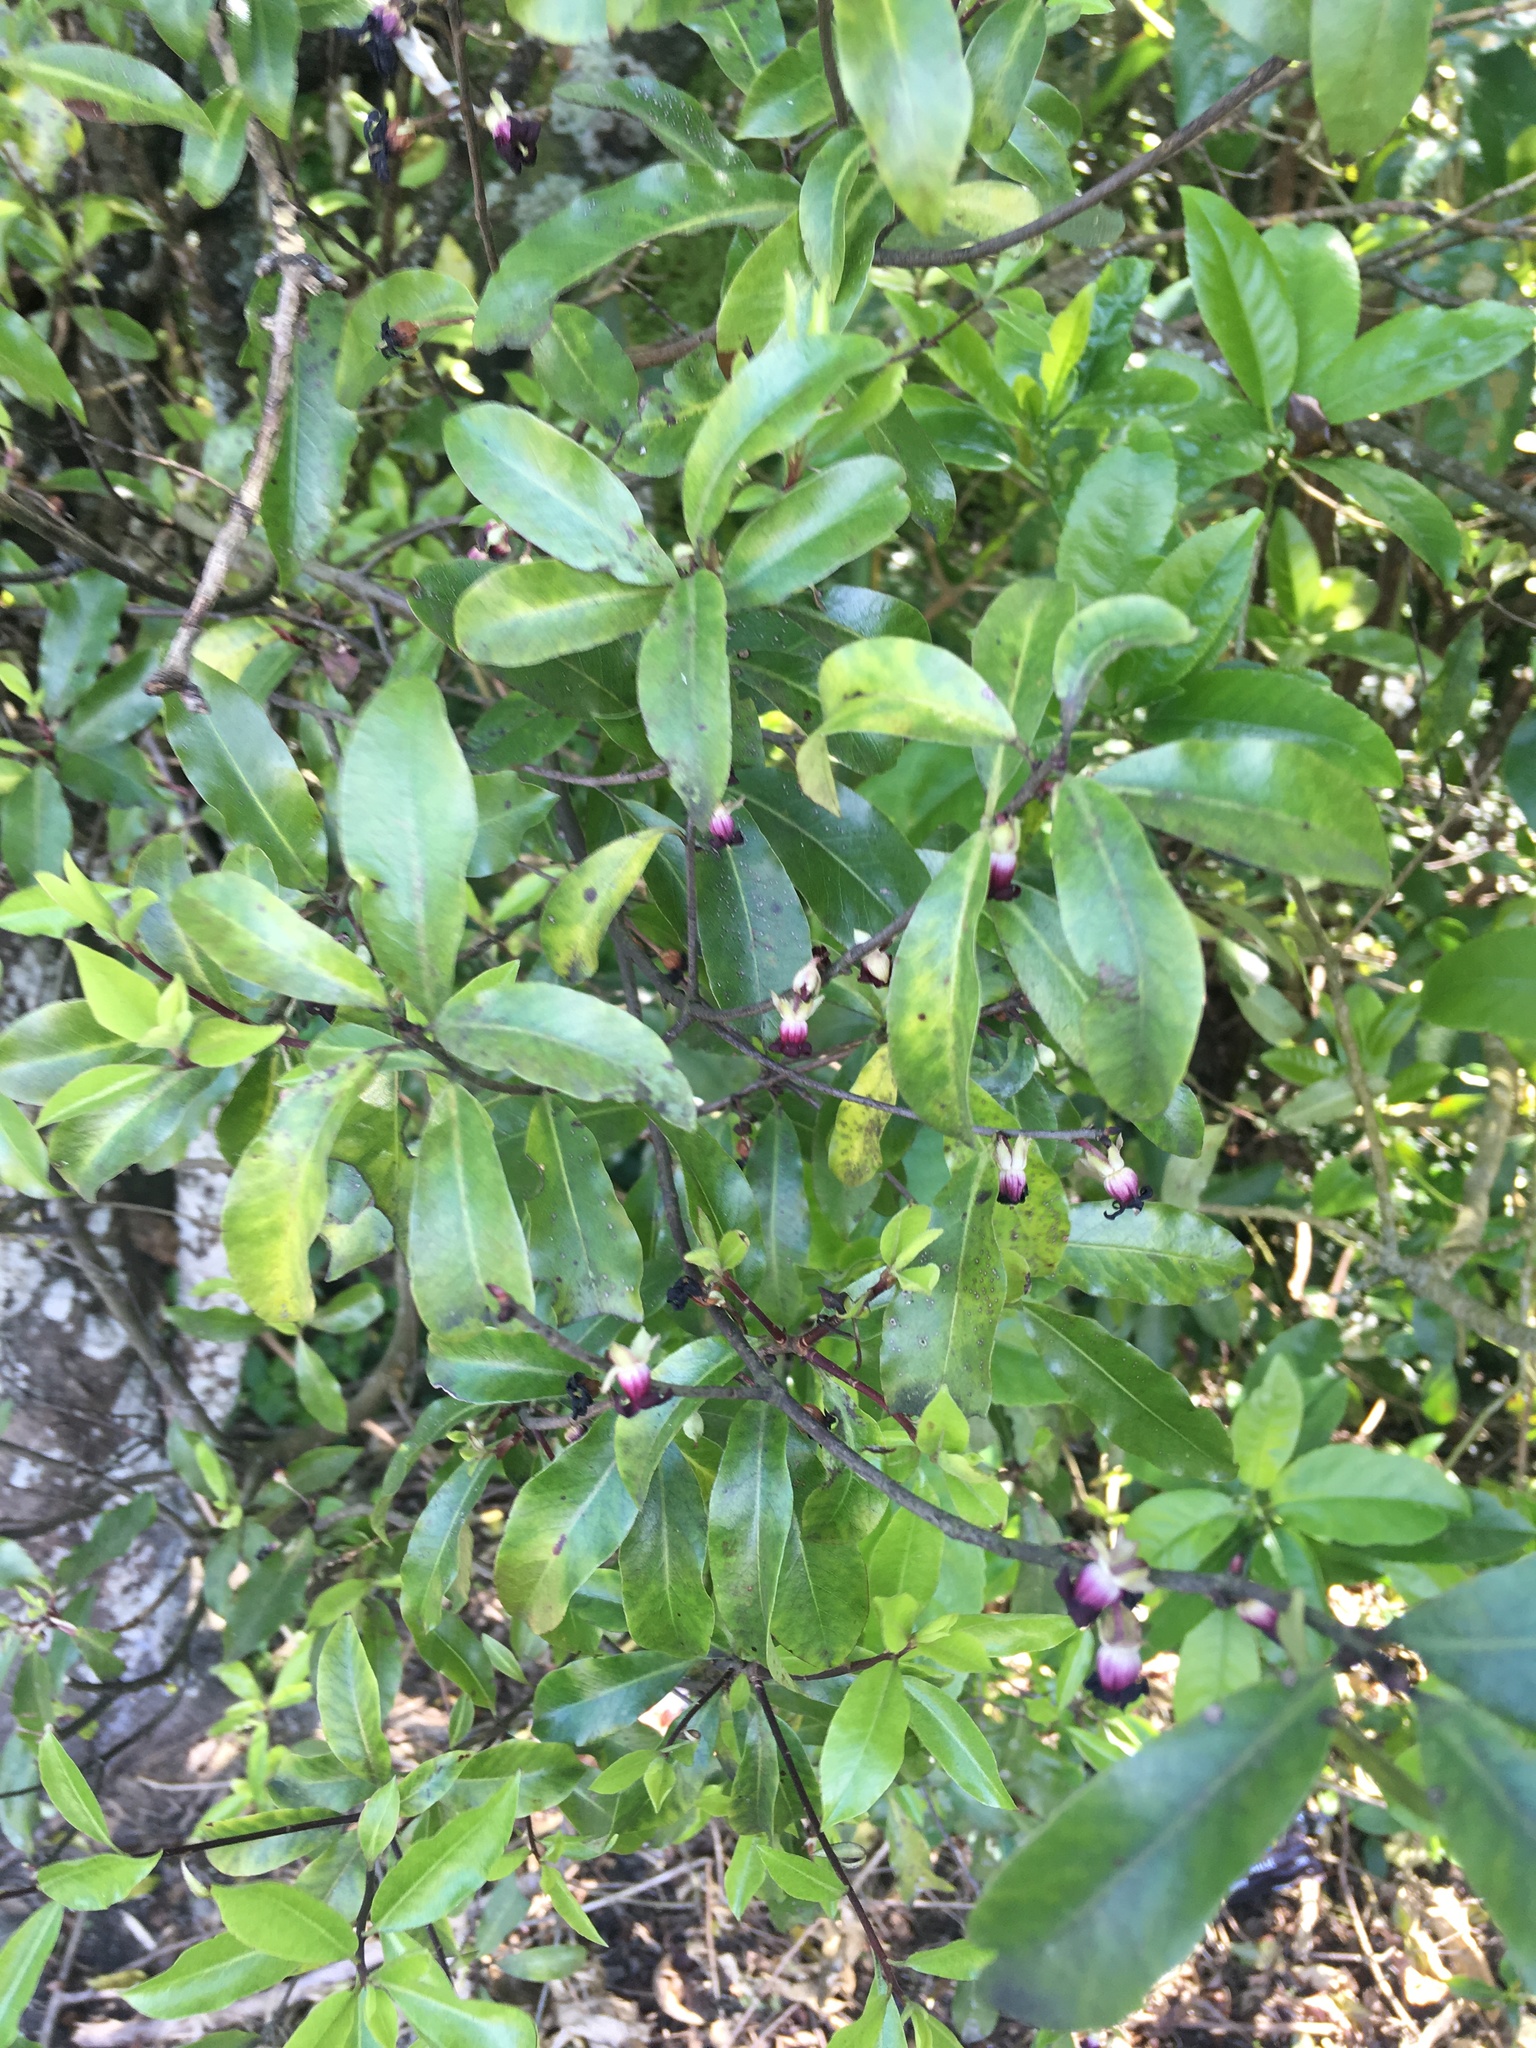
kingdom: Plantae
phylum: Tracheophyta
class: Magnoliopsida
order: Apiales
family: Pittosporaceae
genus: Pittosporum
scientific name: Pittosporum tenuifolium
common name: Kohuhu
